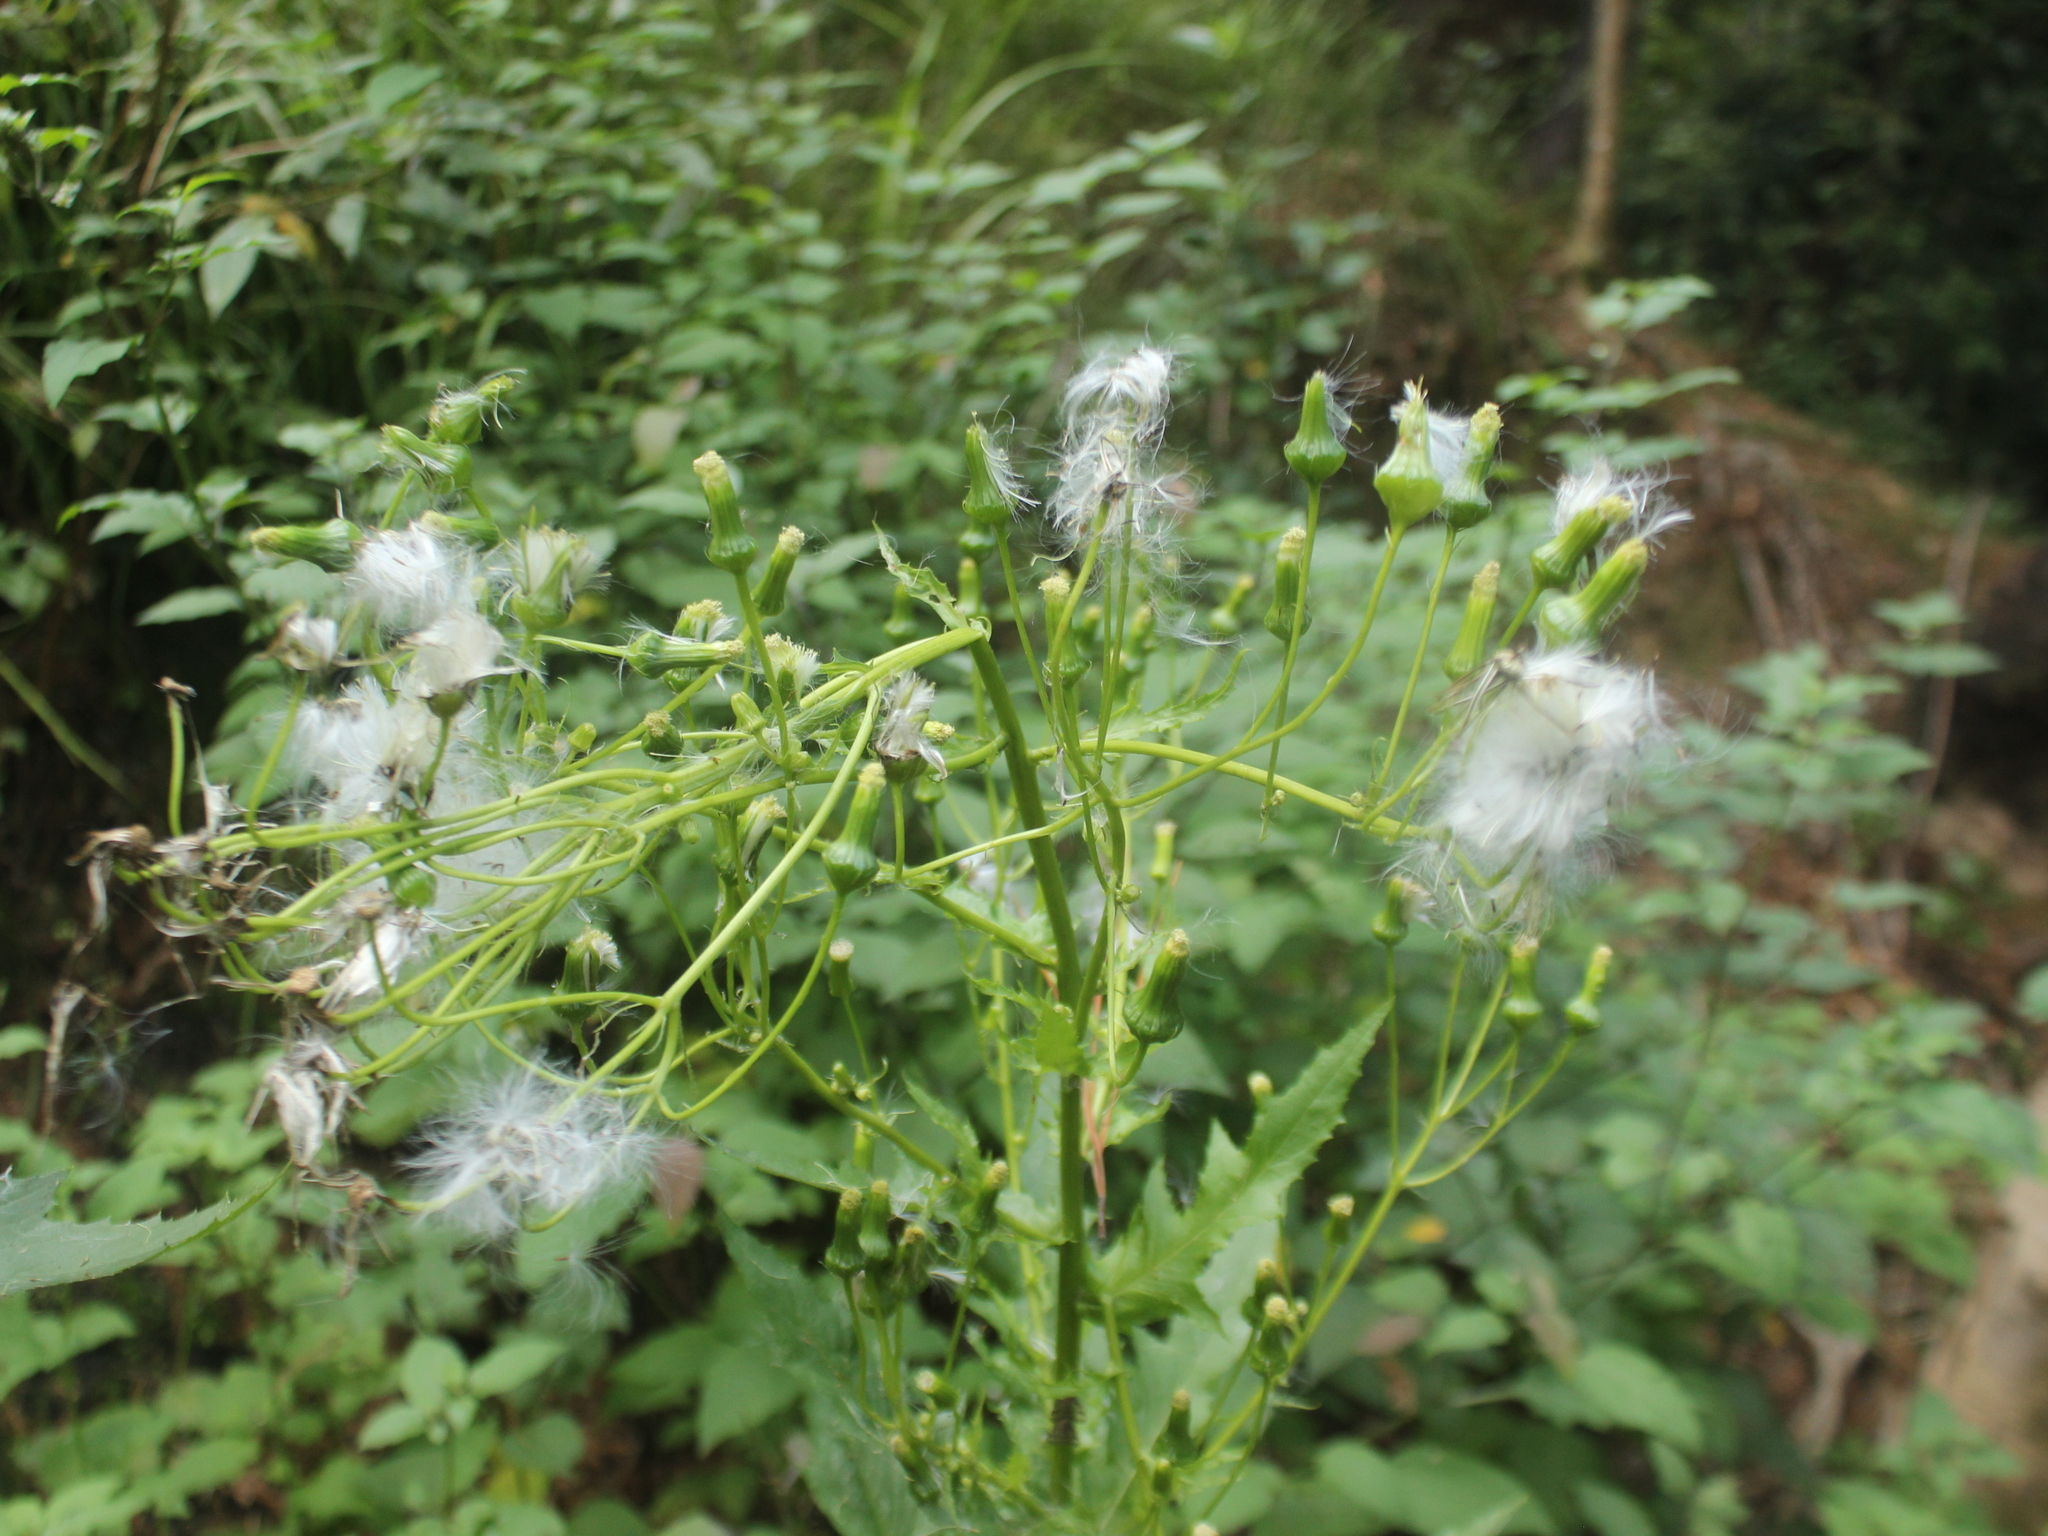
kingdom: Plantae
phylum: Tracheophyta
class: Magnoliopsida
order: Asterales
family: Asteraceae
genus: Erechtites
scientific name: Erechtites hieraciifolius
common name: American burnweed
